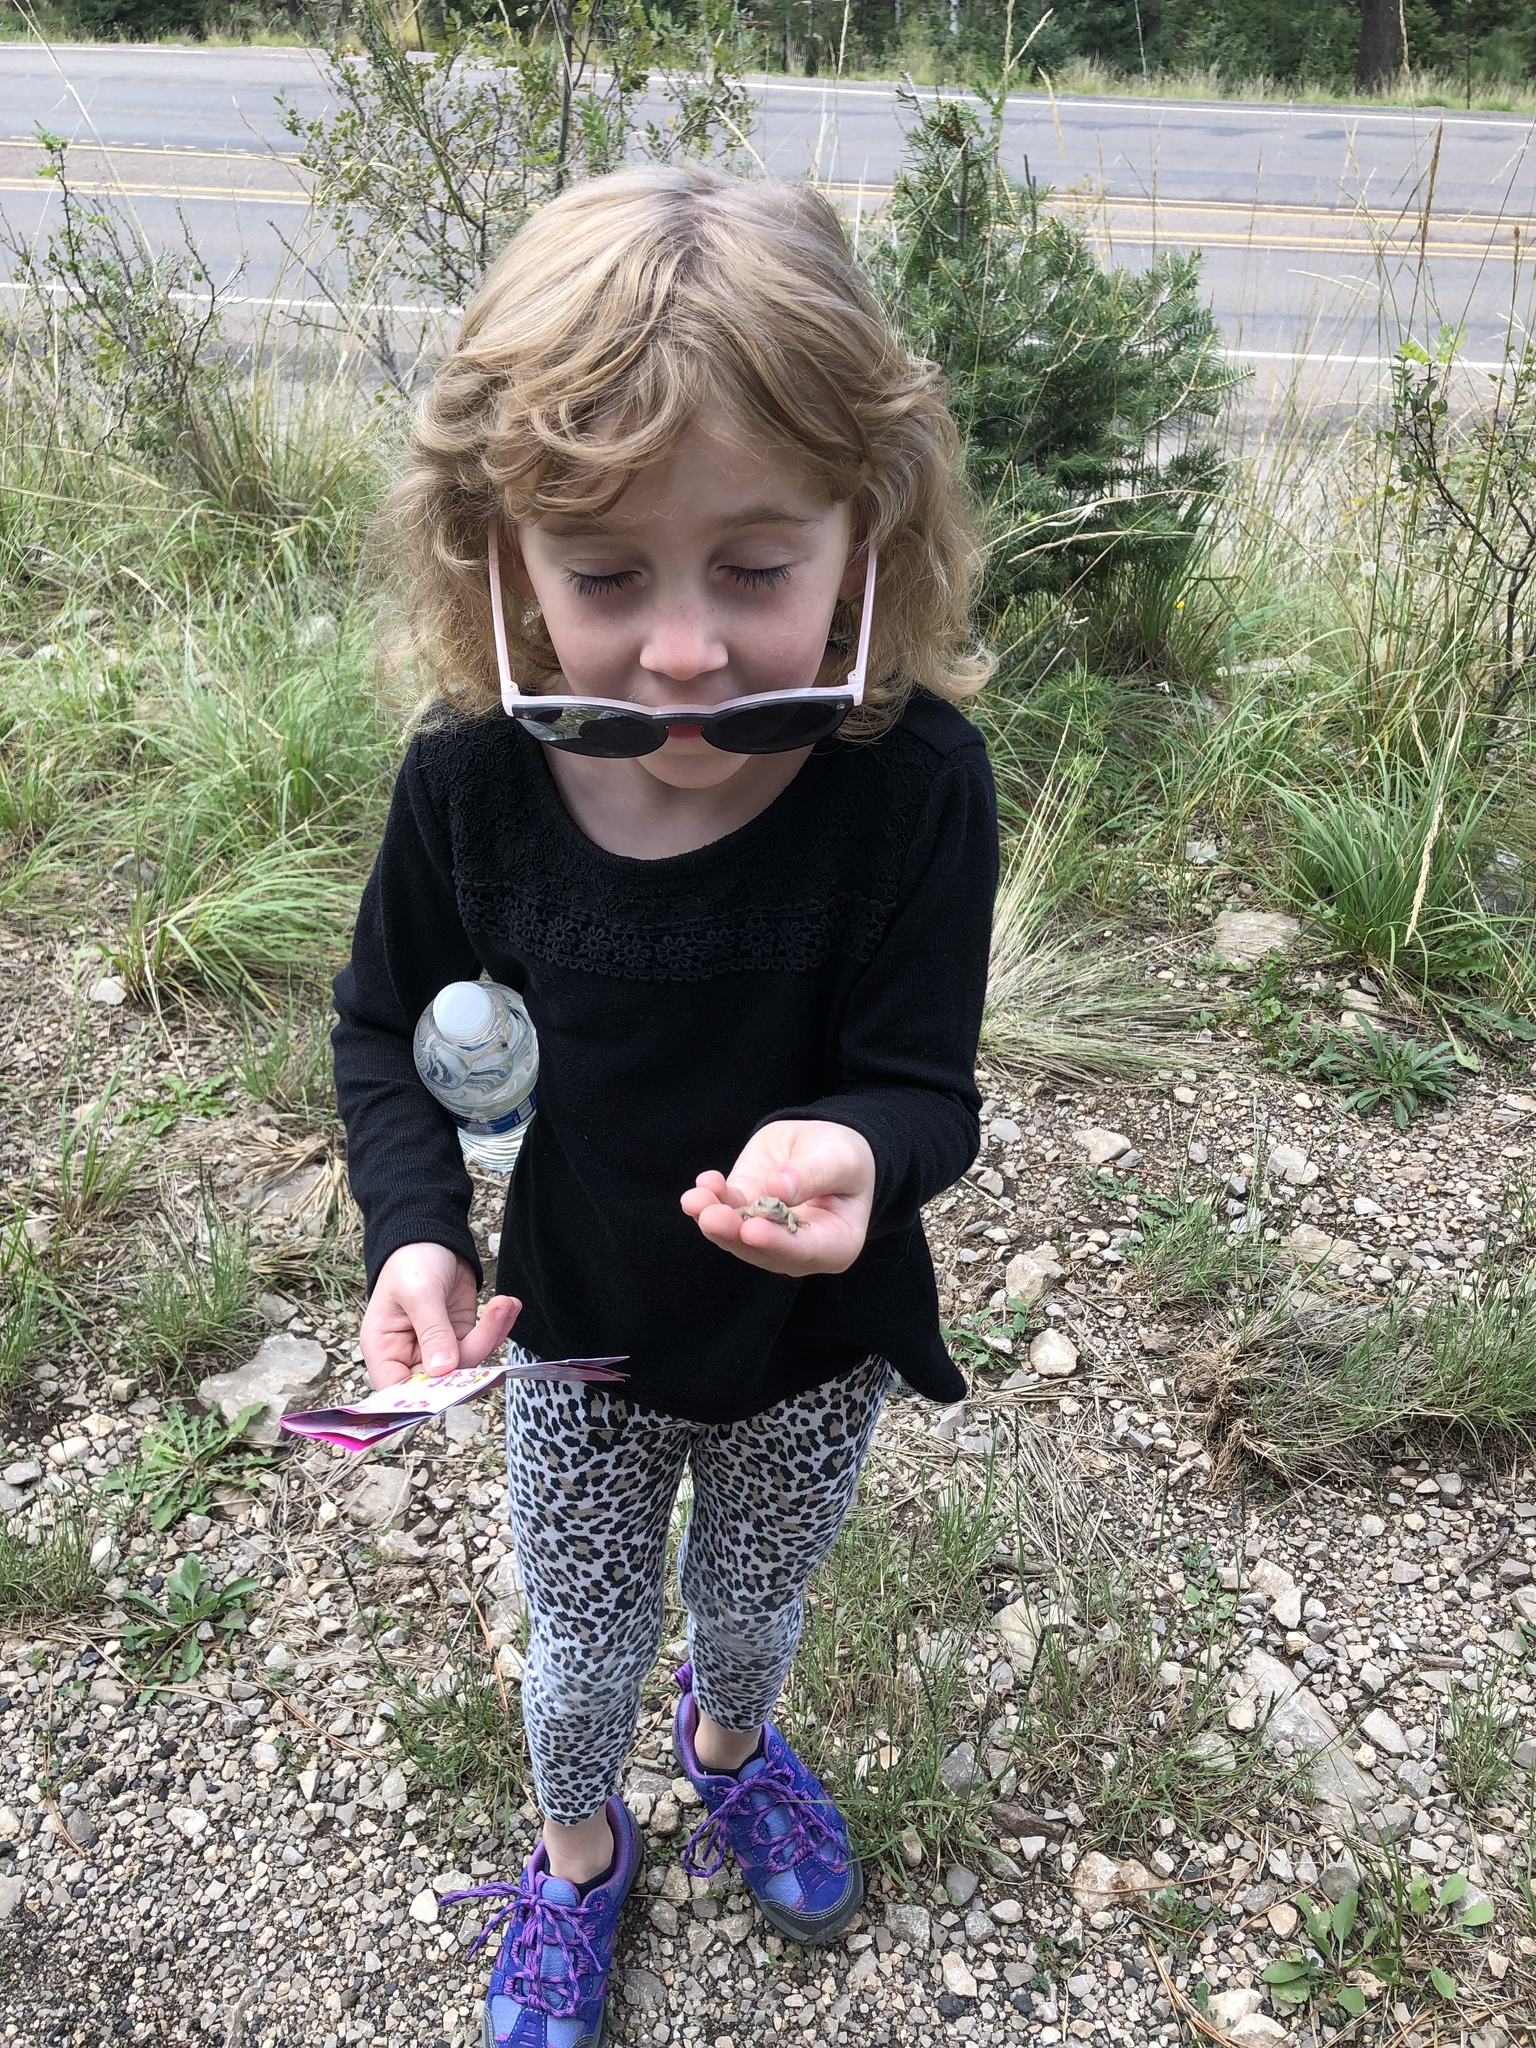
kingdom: Animalia
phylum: Chordata
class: Squamata
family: Phrynosomatidae
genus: Phrynosoma
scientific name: Phrynosoma hernandesi
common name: Greater short-horned lizard
